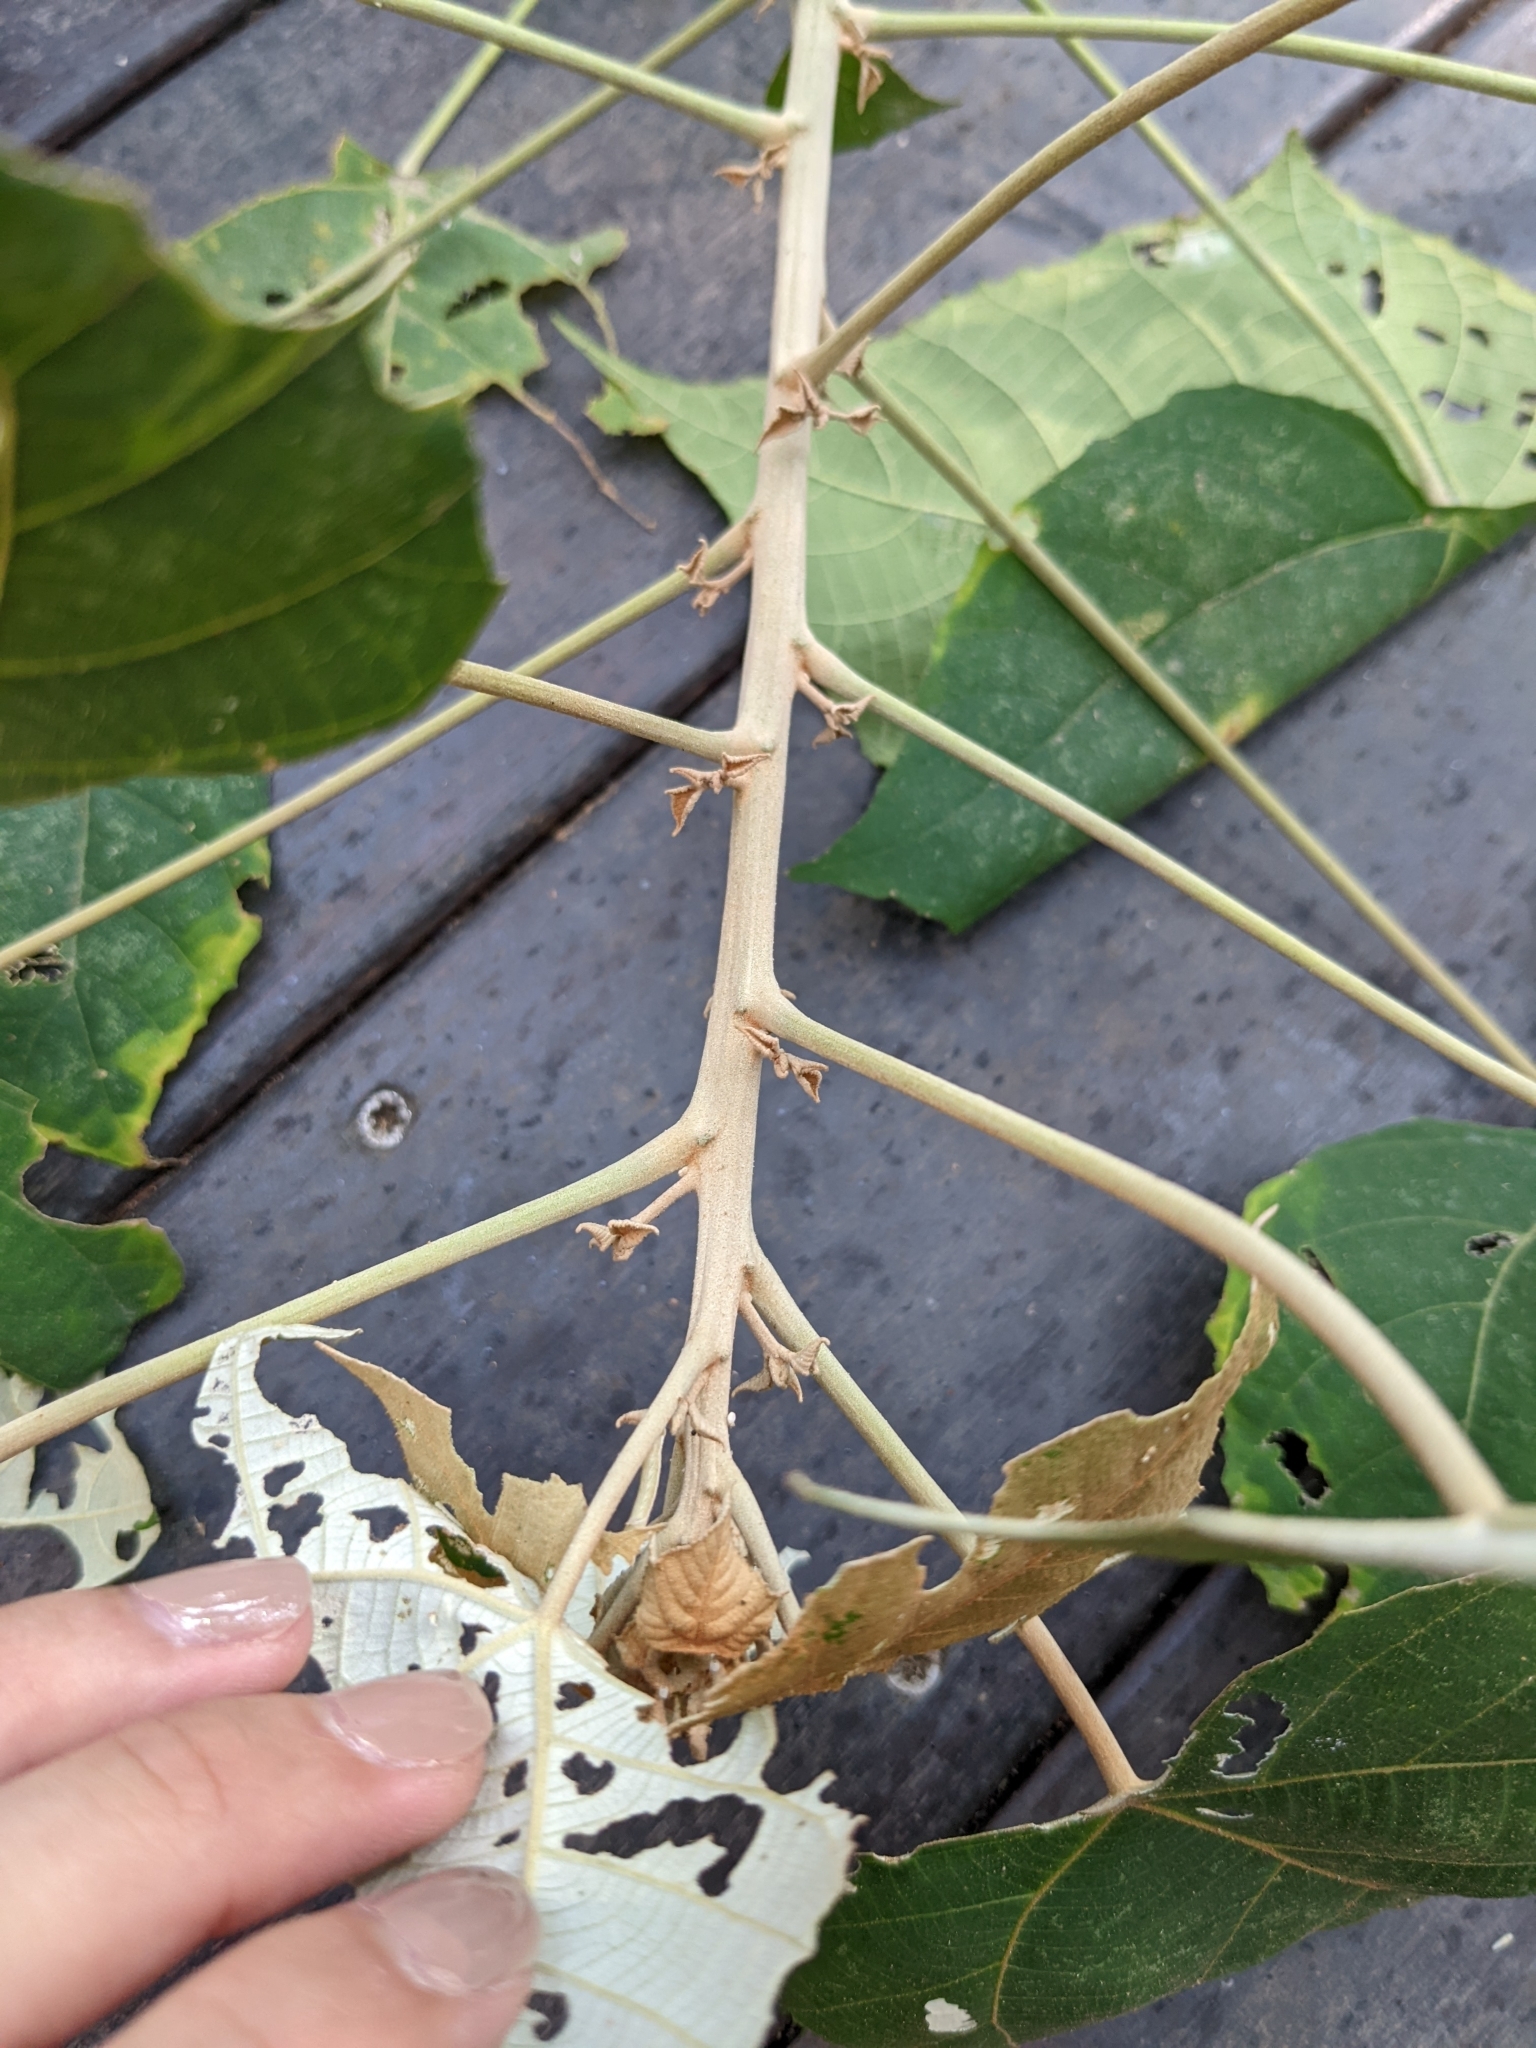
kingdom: Plantae
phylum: Tracheophyta
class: Magnoliopsida
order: Malpighiales
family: Euphorbiaceae
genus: Mallotus
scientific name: Mallotus paniculatus
